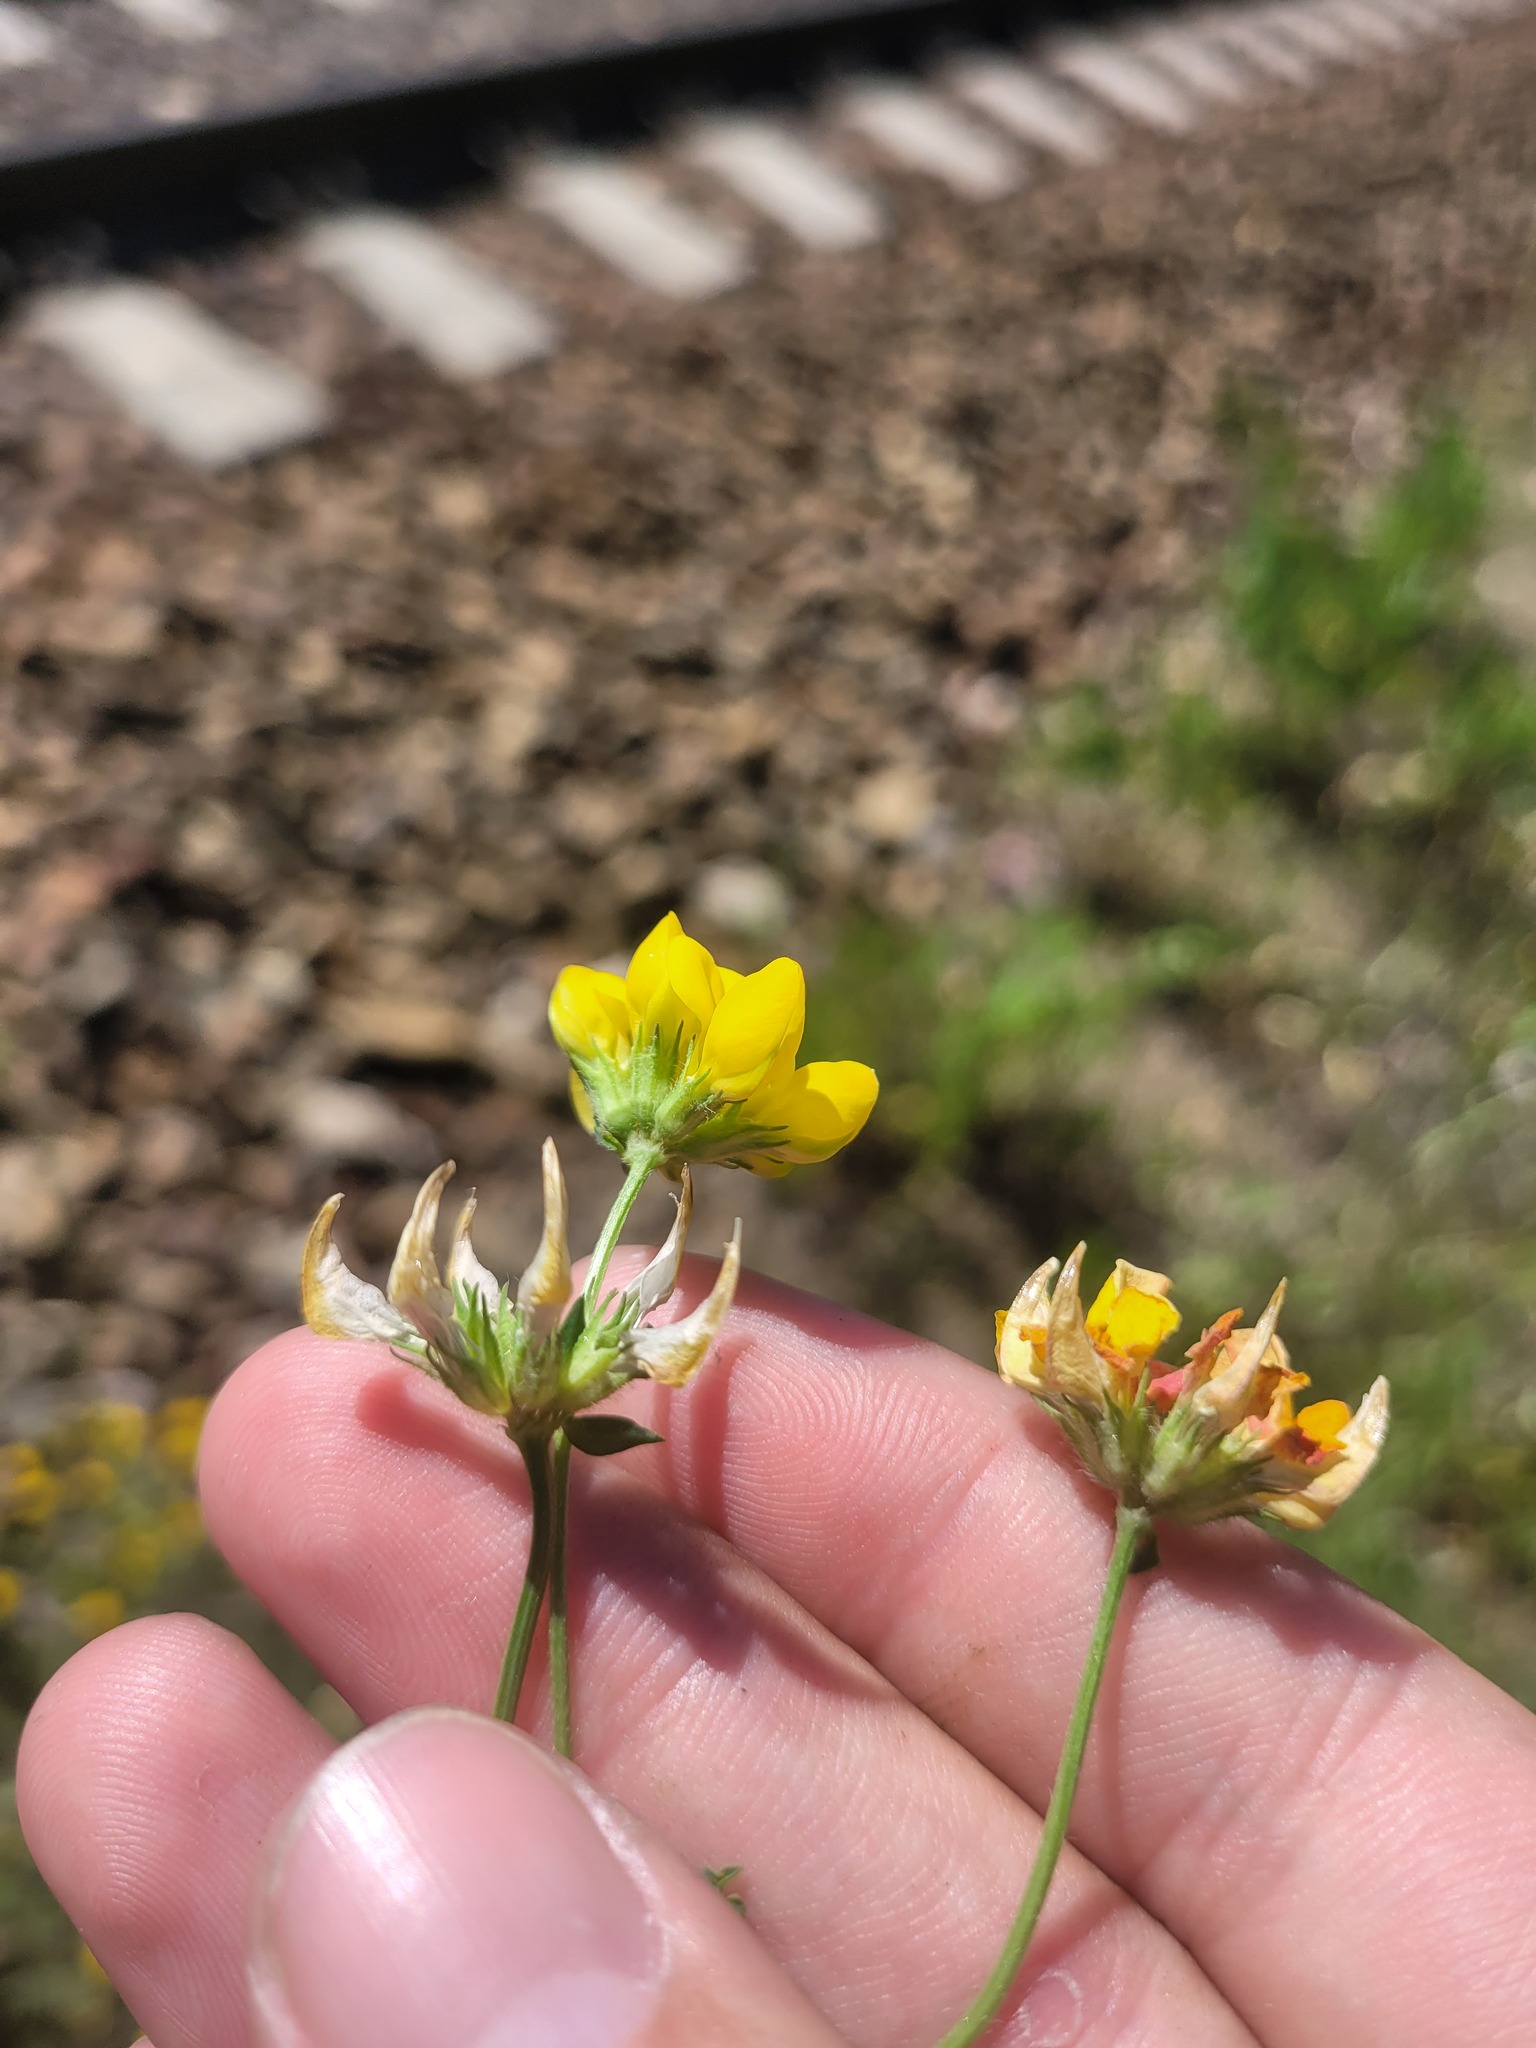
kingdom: Plantae
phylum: Tracheophyta
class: Magnoliopsida
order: Fabales
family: Fabaceae
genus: Lotus
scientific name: Lotus corniculatus
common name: Common bird's-foot-trefoil
